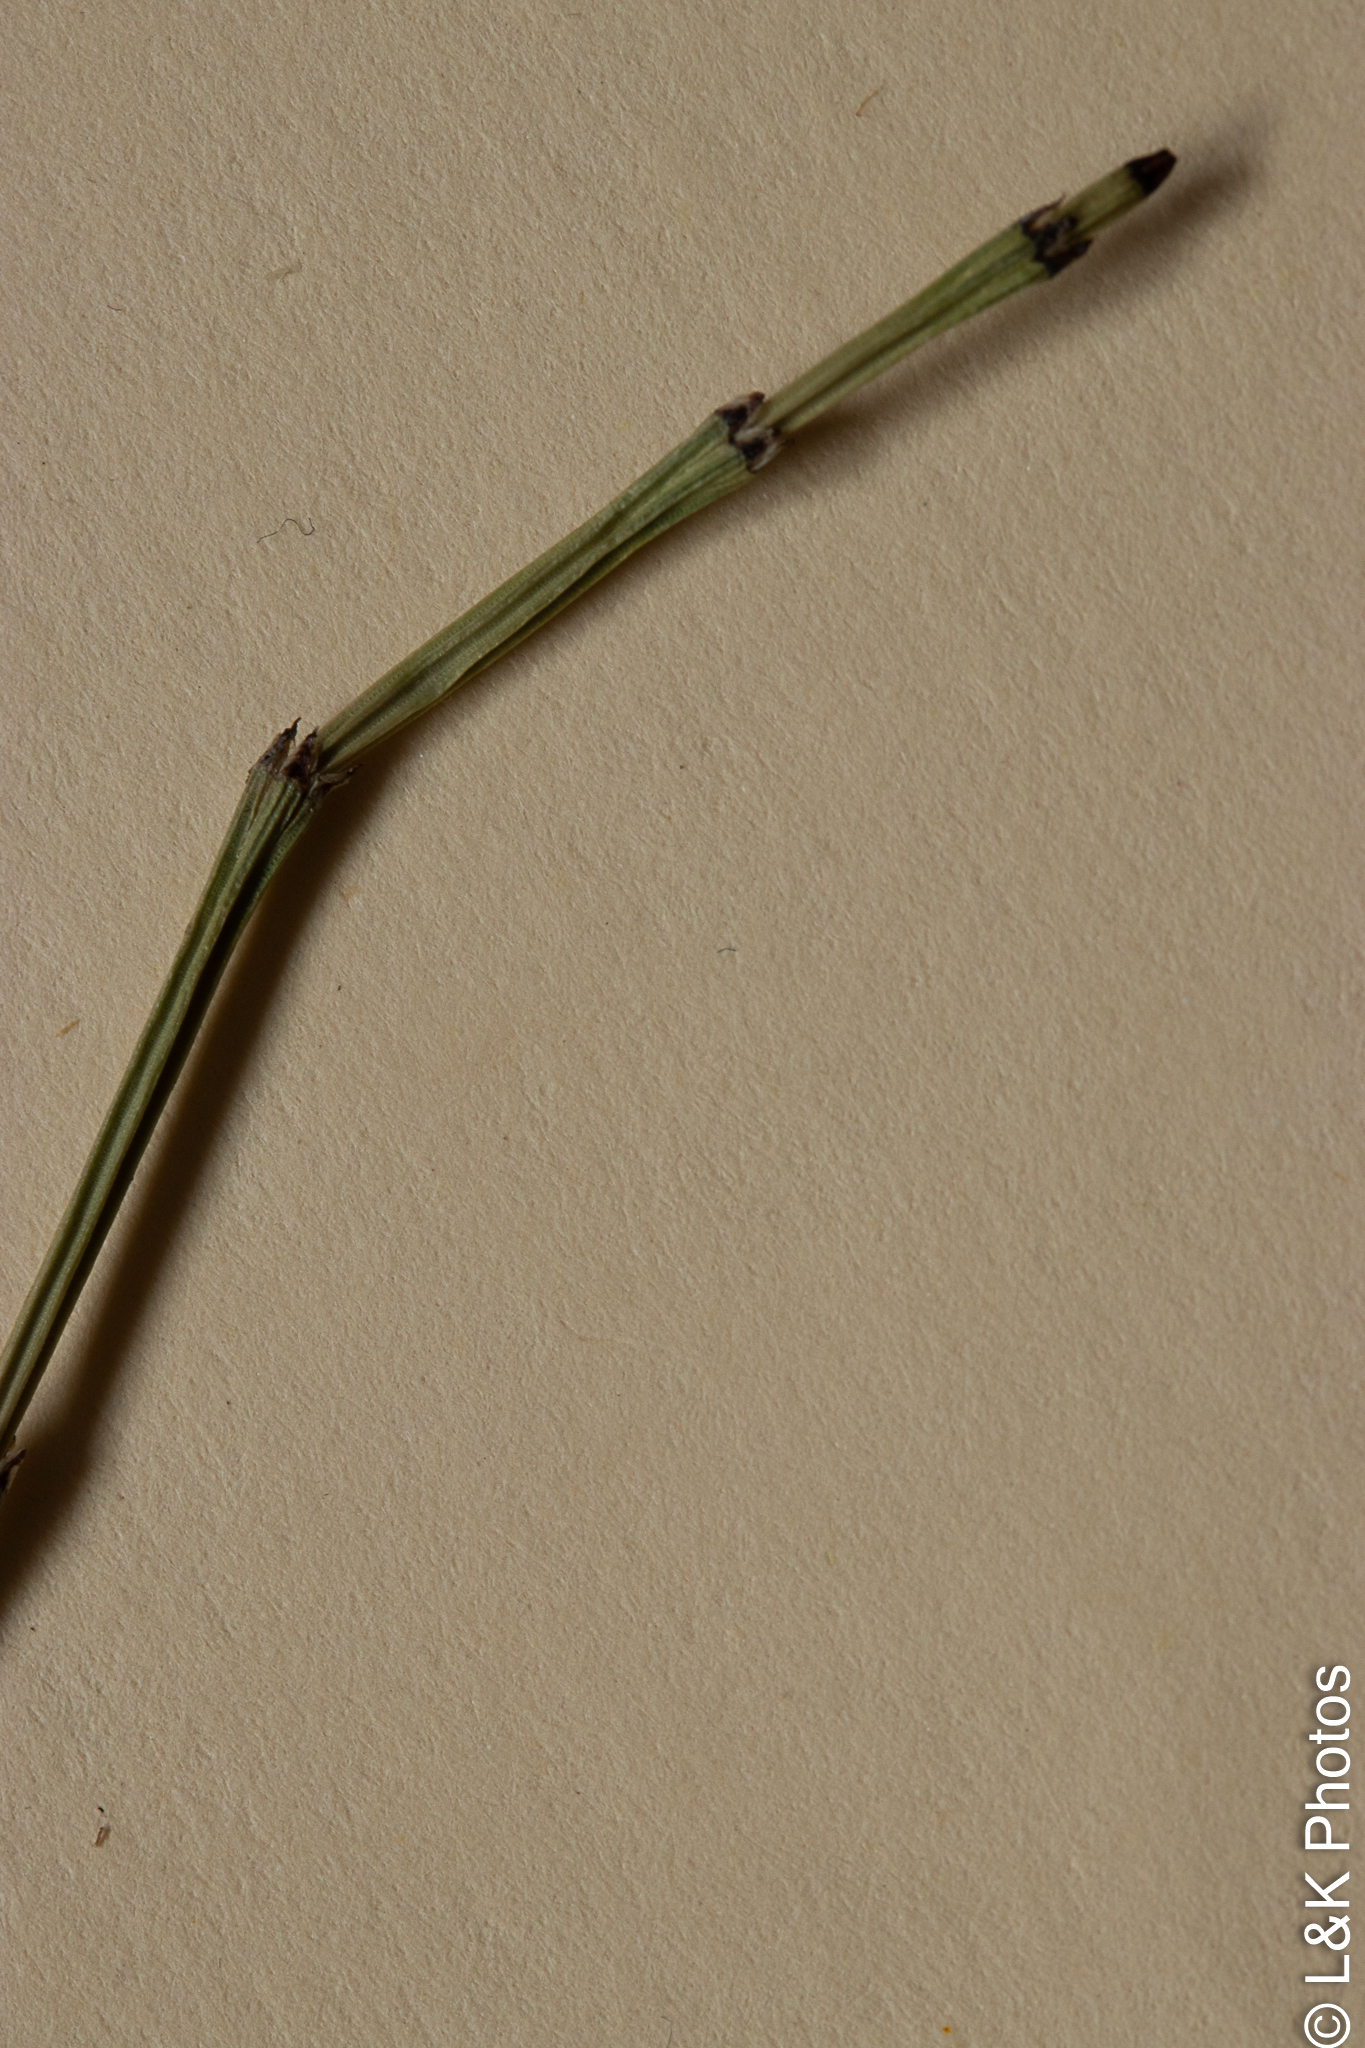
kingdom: Plantae
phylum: Tracheophyta
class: Polypodiopsida
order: Equisetales
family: Equisetaceae
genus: Equisetum
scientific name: Equisetum variegatum
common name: Variegated horsetail
